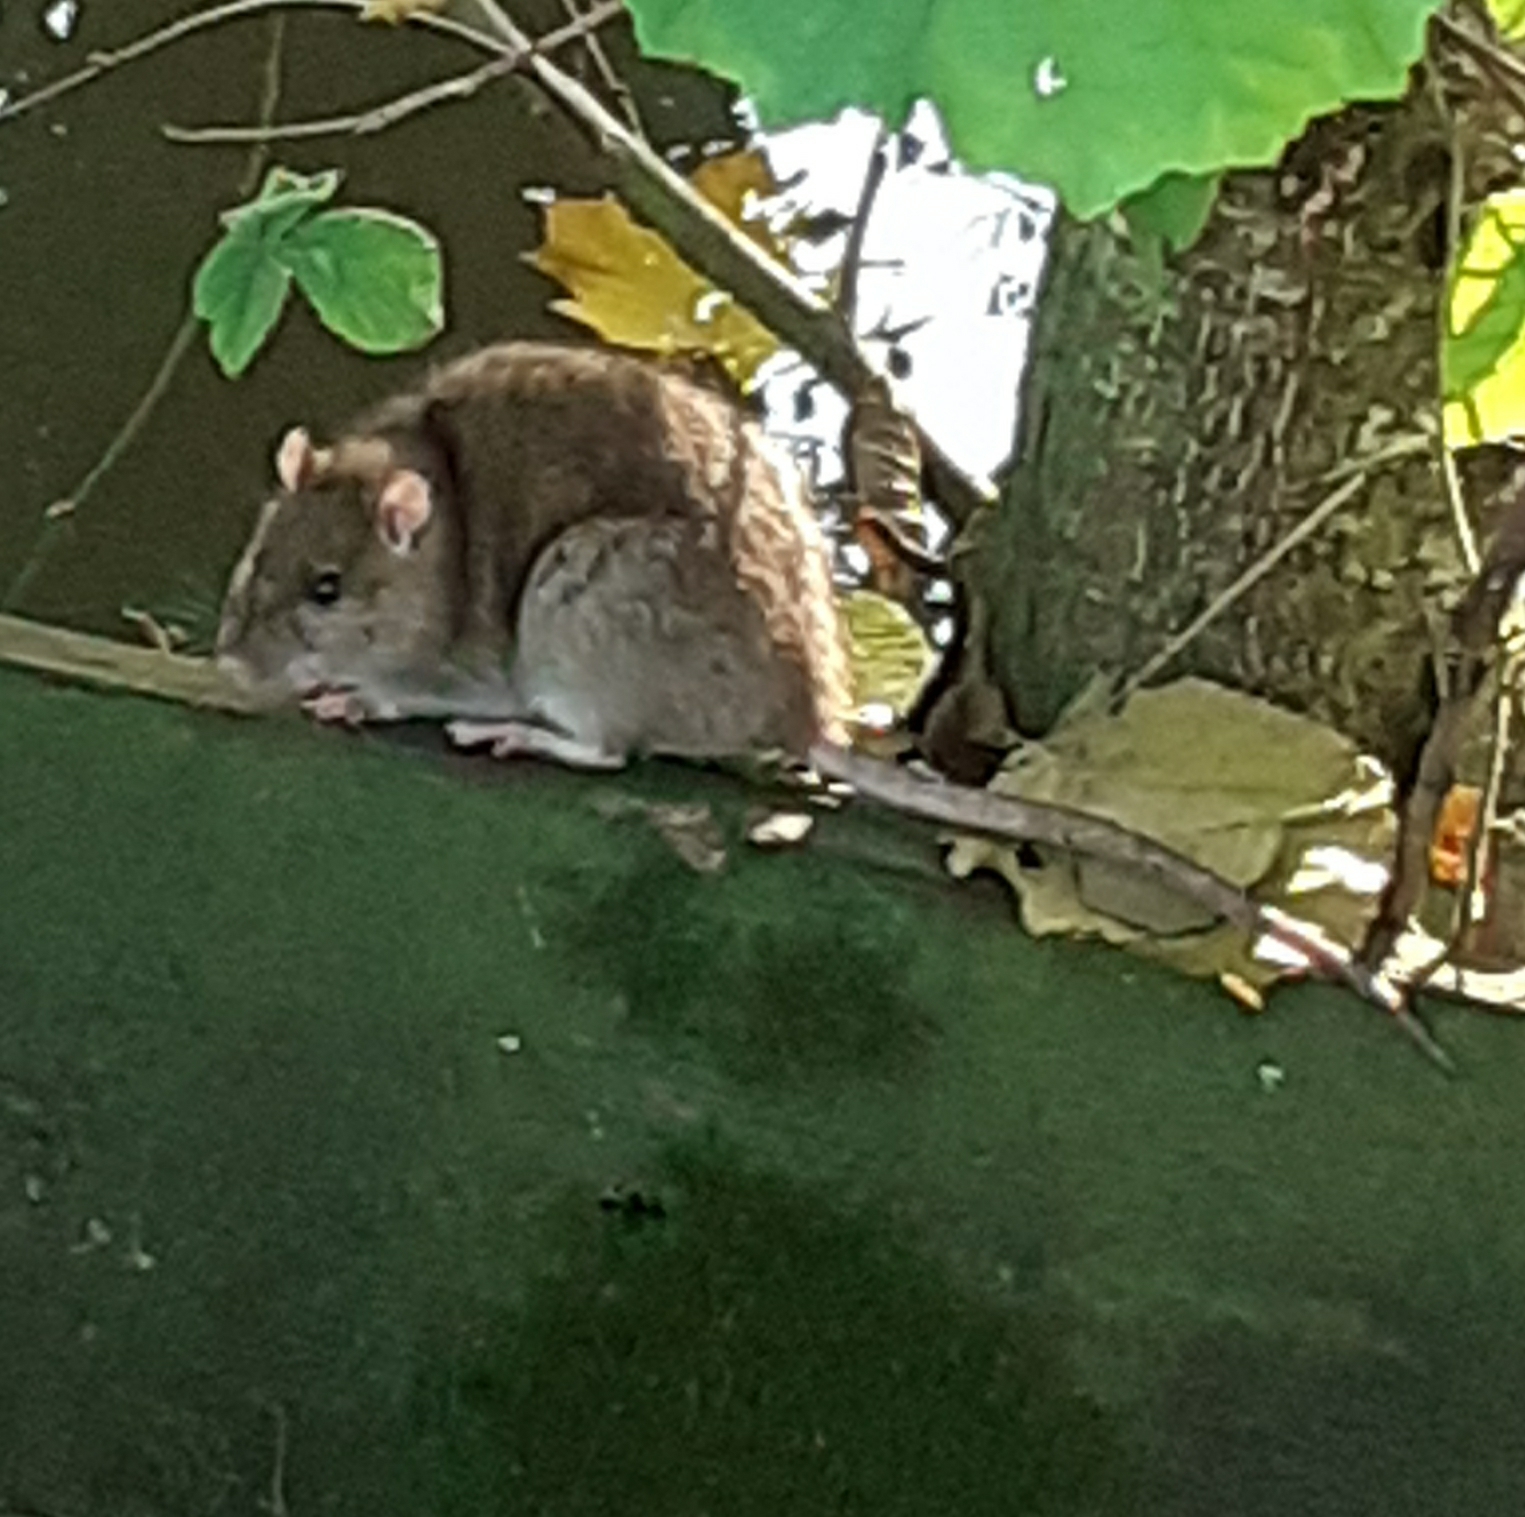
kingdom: Animalia
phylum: Chordata
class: Mammalia
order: Rodentia
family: Muridae
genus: Rattus
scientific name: Rattus norvegicus
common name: Brown rat
